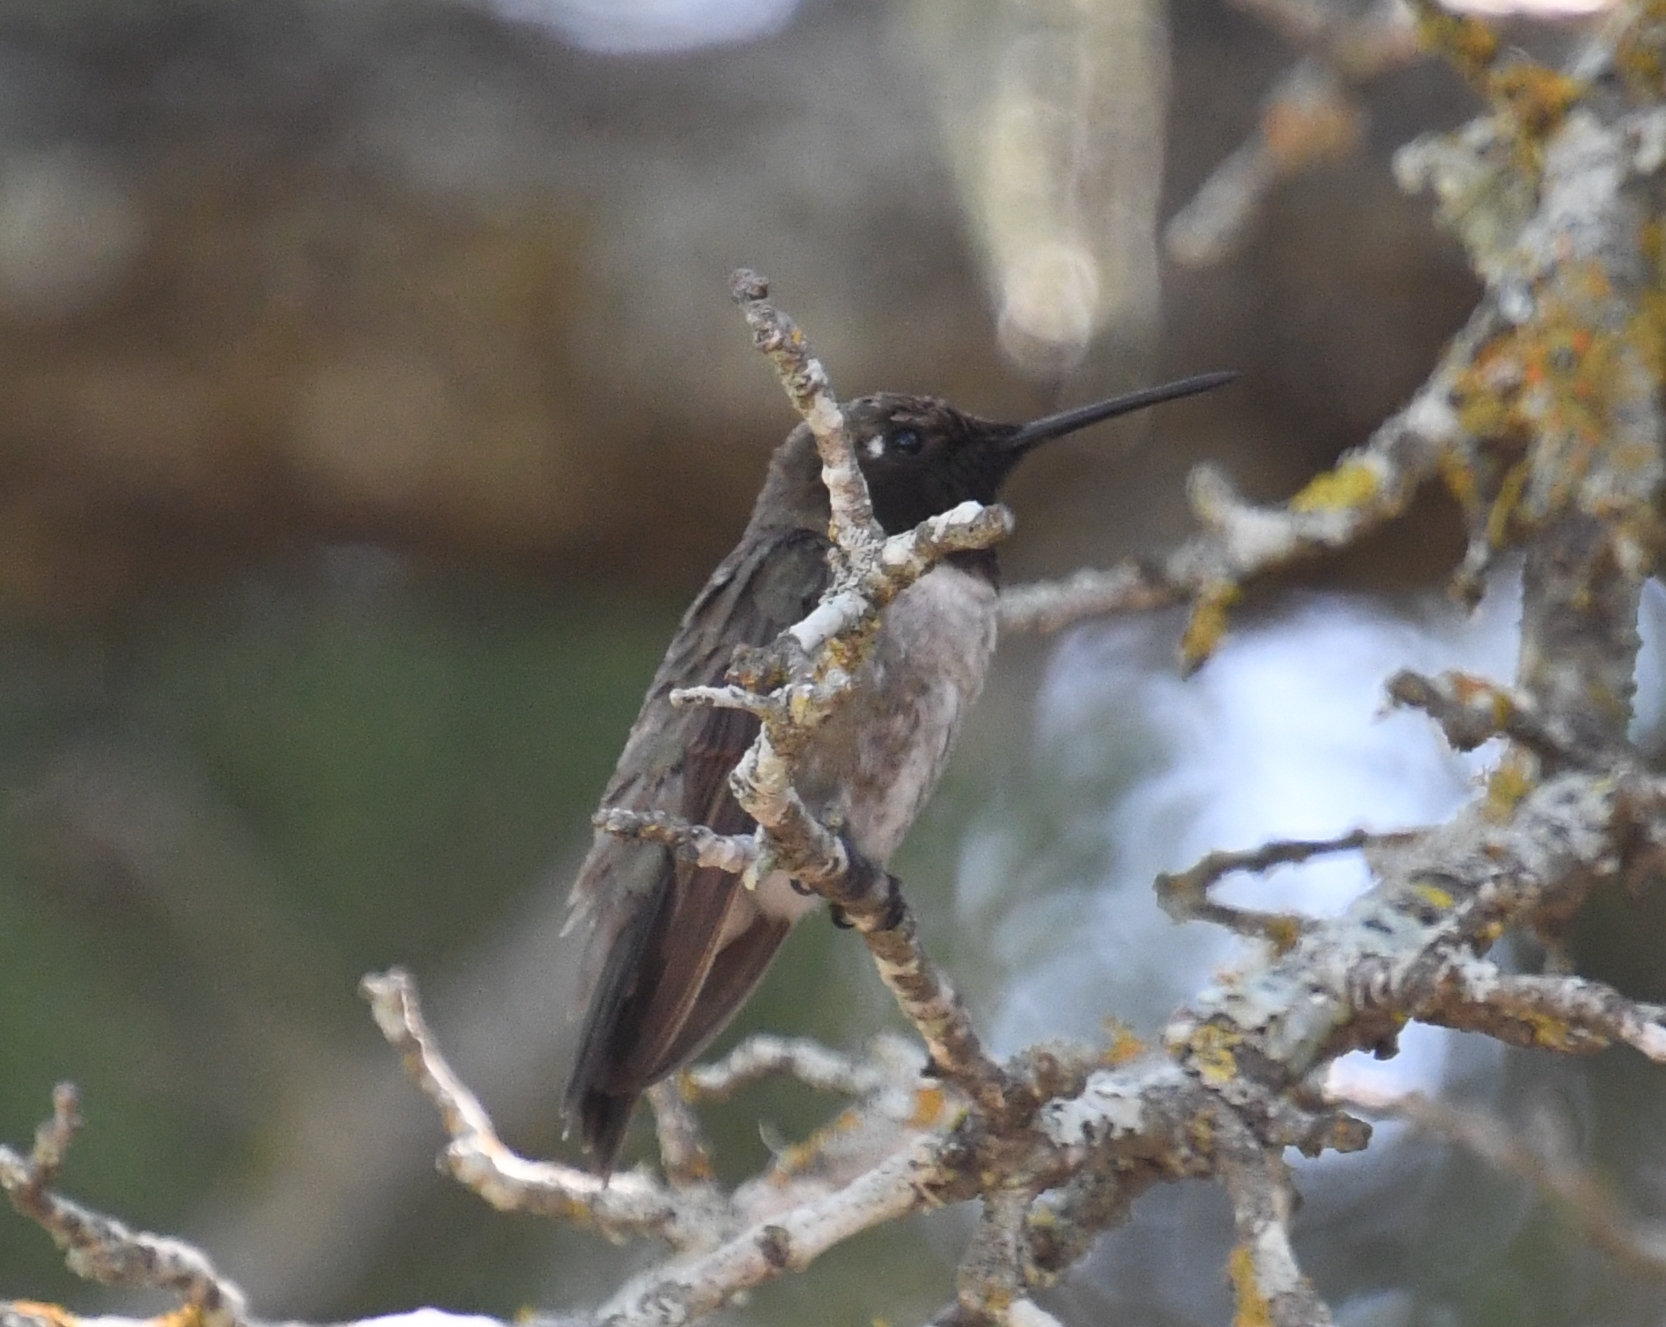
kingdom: Animalia
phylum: Chordata
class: Aves
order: Apodiformes
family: Trochilidae
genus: Archilochus
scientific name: Archilochus alexandri
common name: Black-chinned hummingbird
